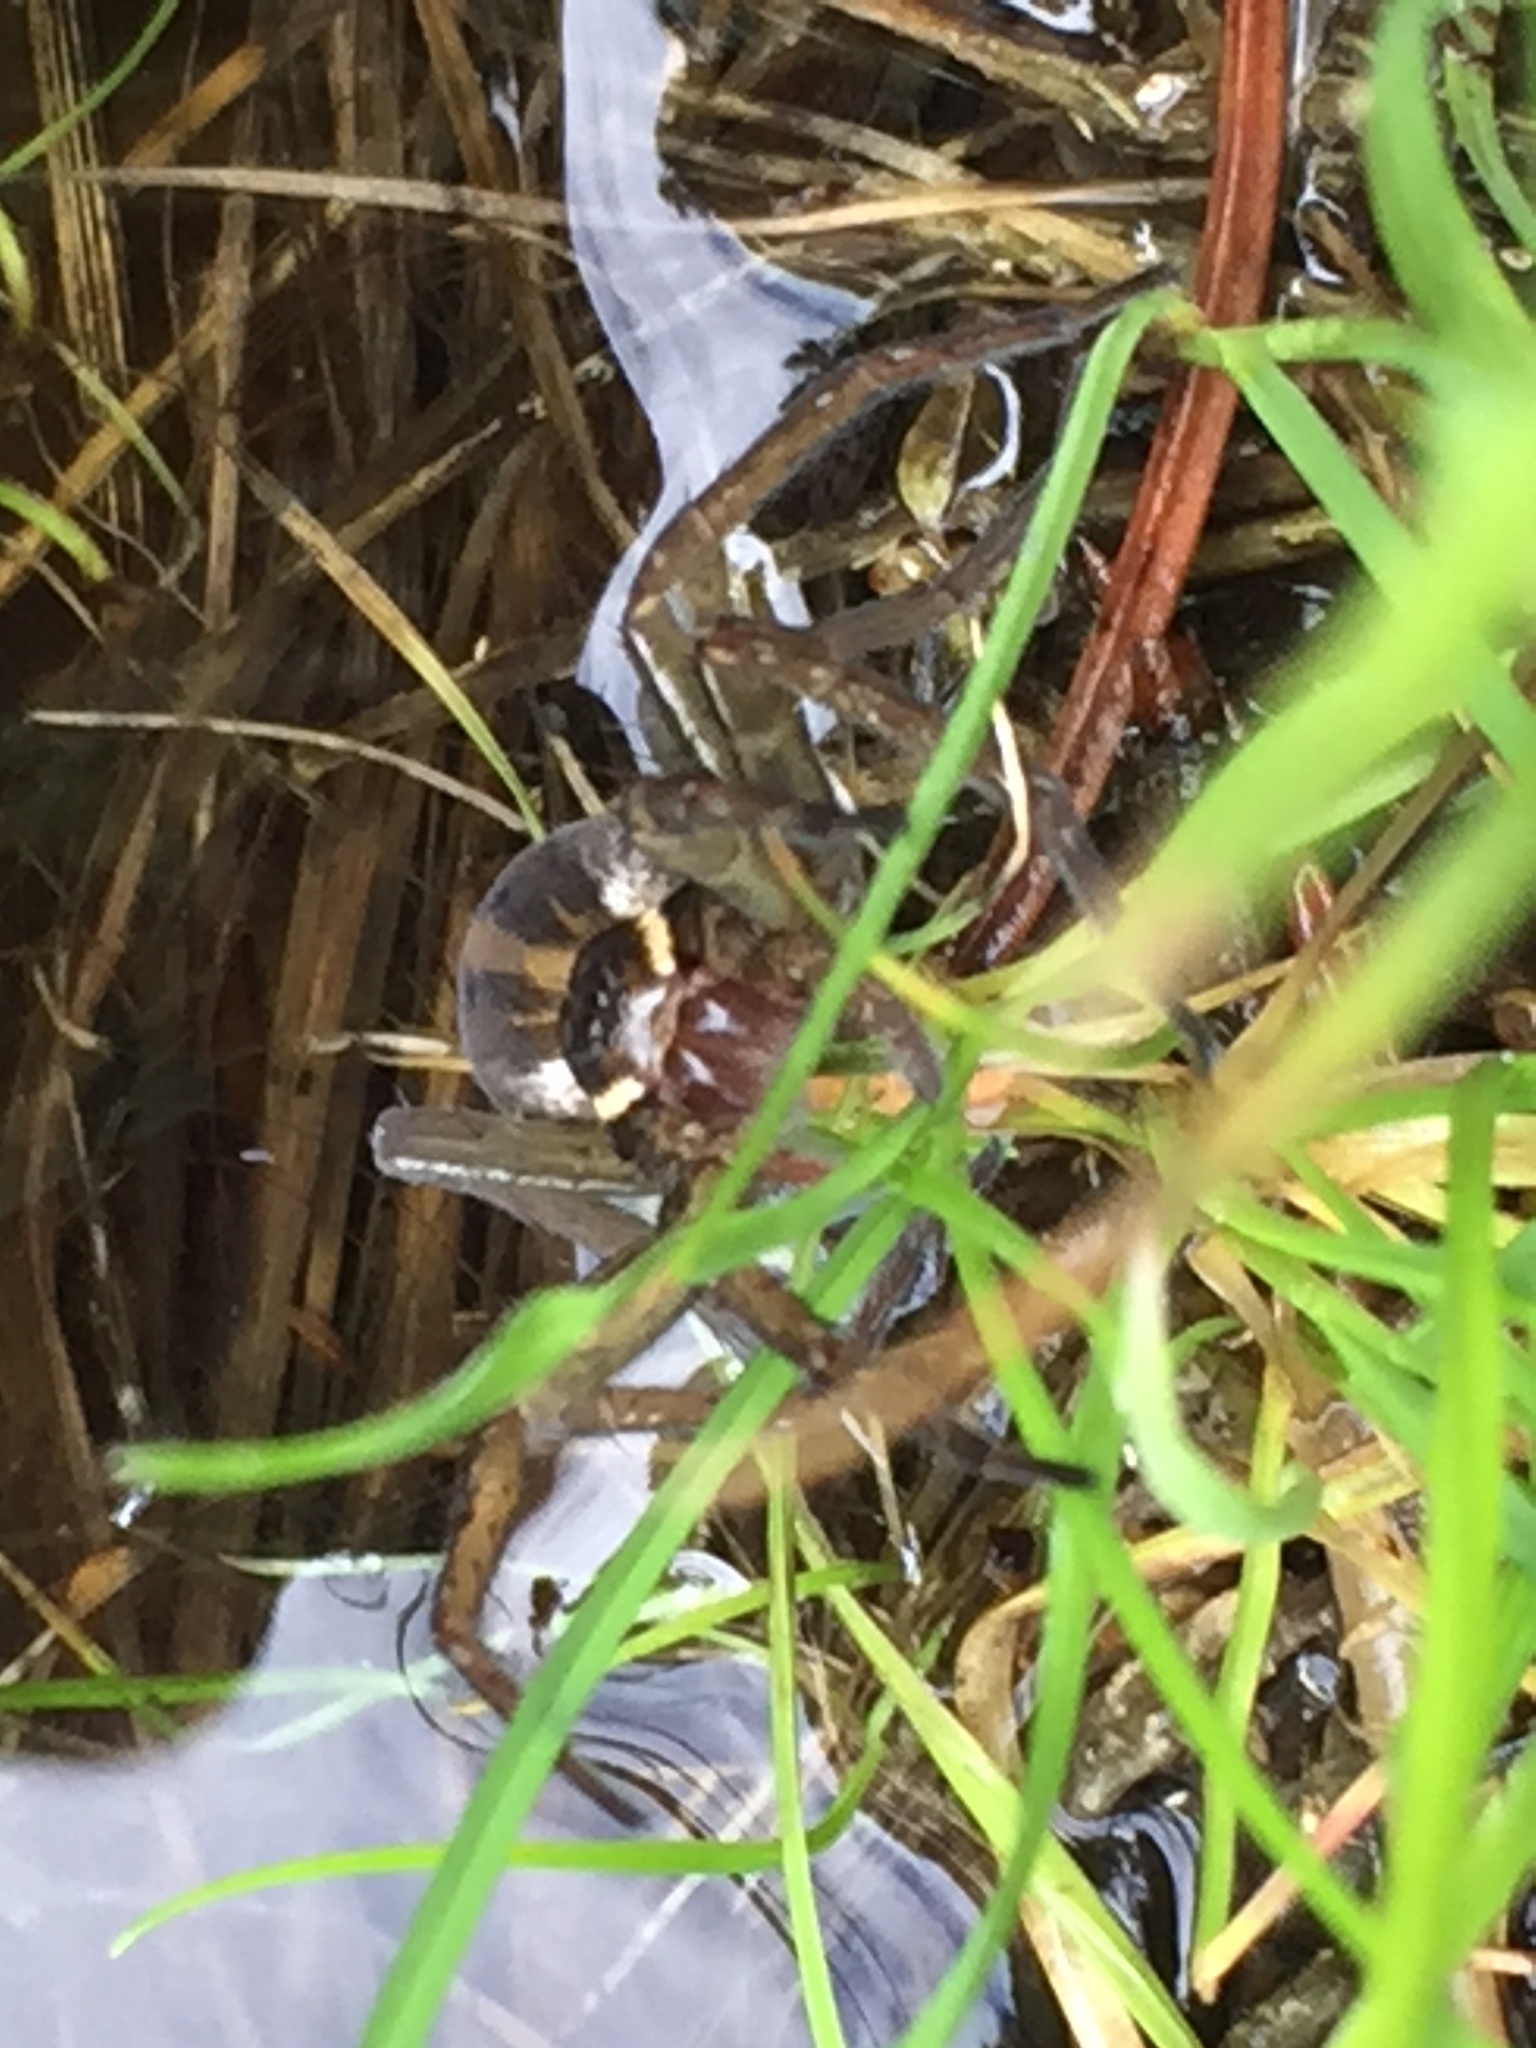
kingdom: Animalia
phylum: Arthropoda
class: Arachnida
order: Araneae
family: Pisauridae
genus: Dolomedes
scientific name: Dolomedes triton
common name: Six-spotted fishing spider
